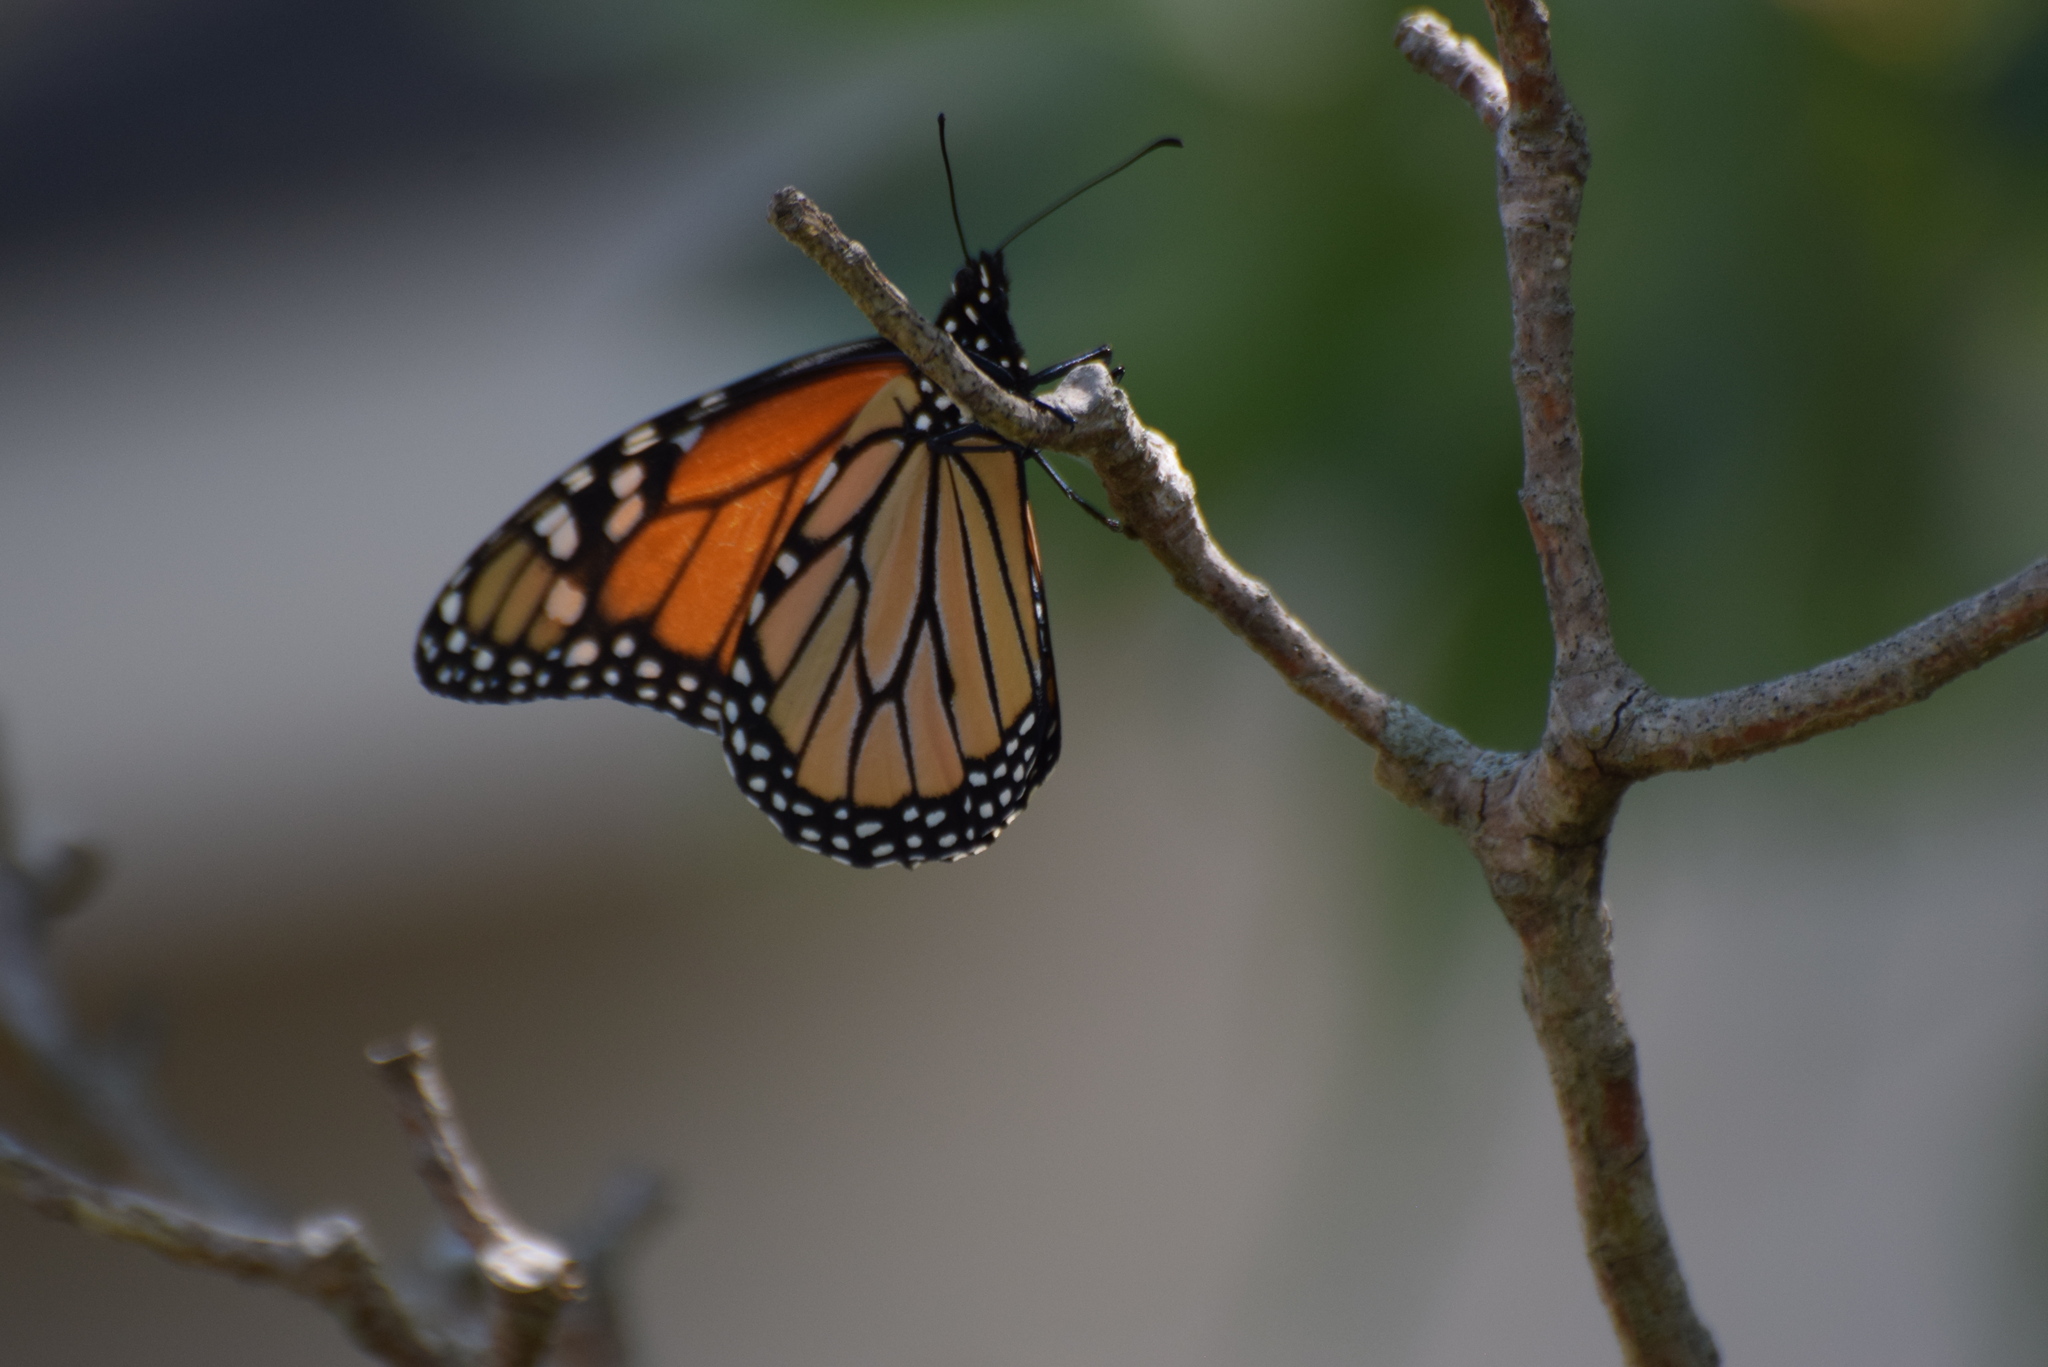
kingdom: Animalia
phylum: Arthropoda
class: Insecta
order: Lepidoptera
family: Nymphalidae
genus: Danaus
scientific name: Danaus plexippus
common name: Monarch
